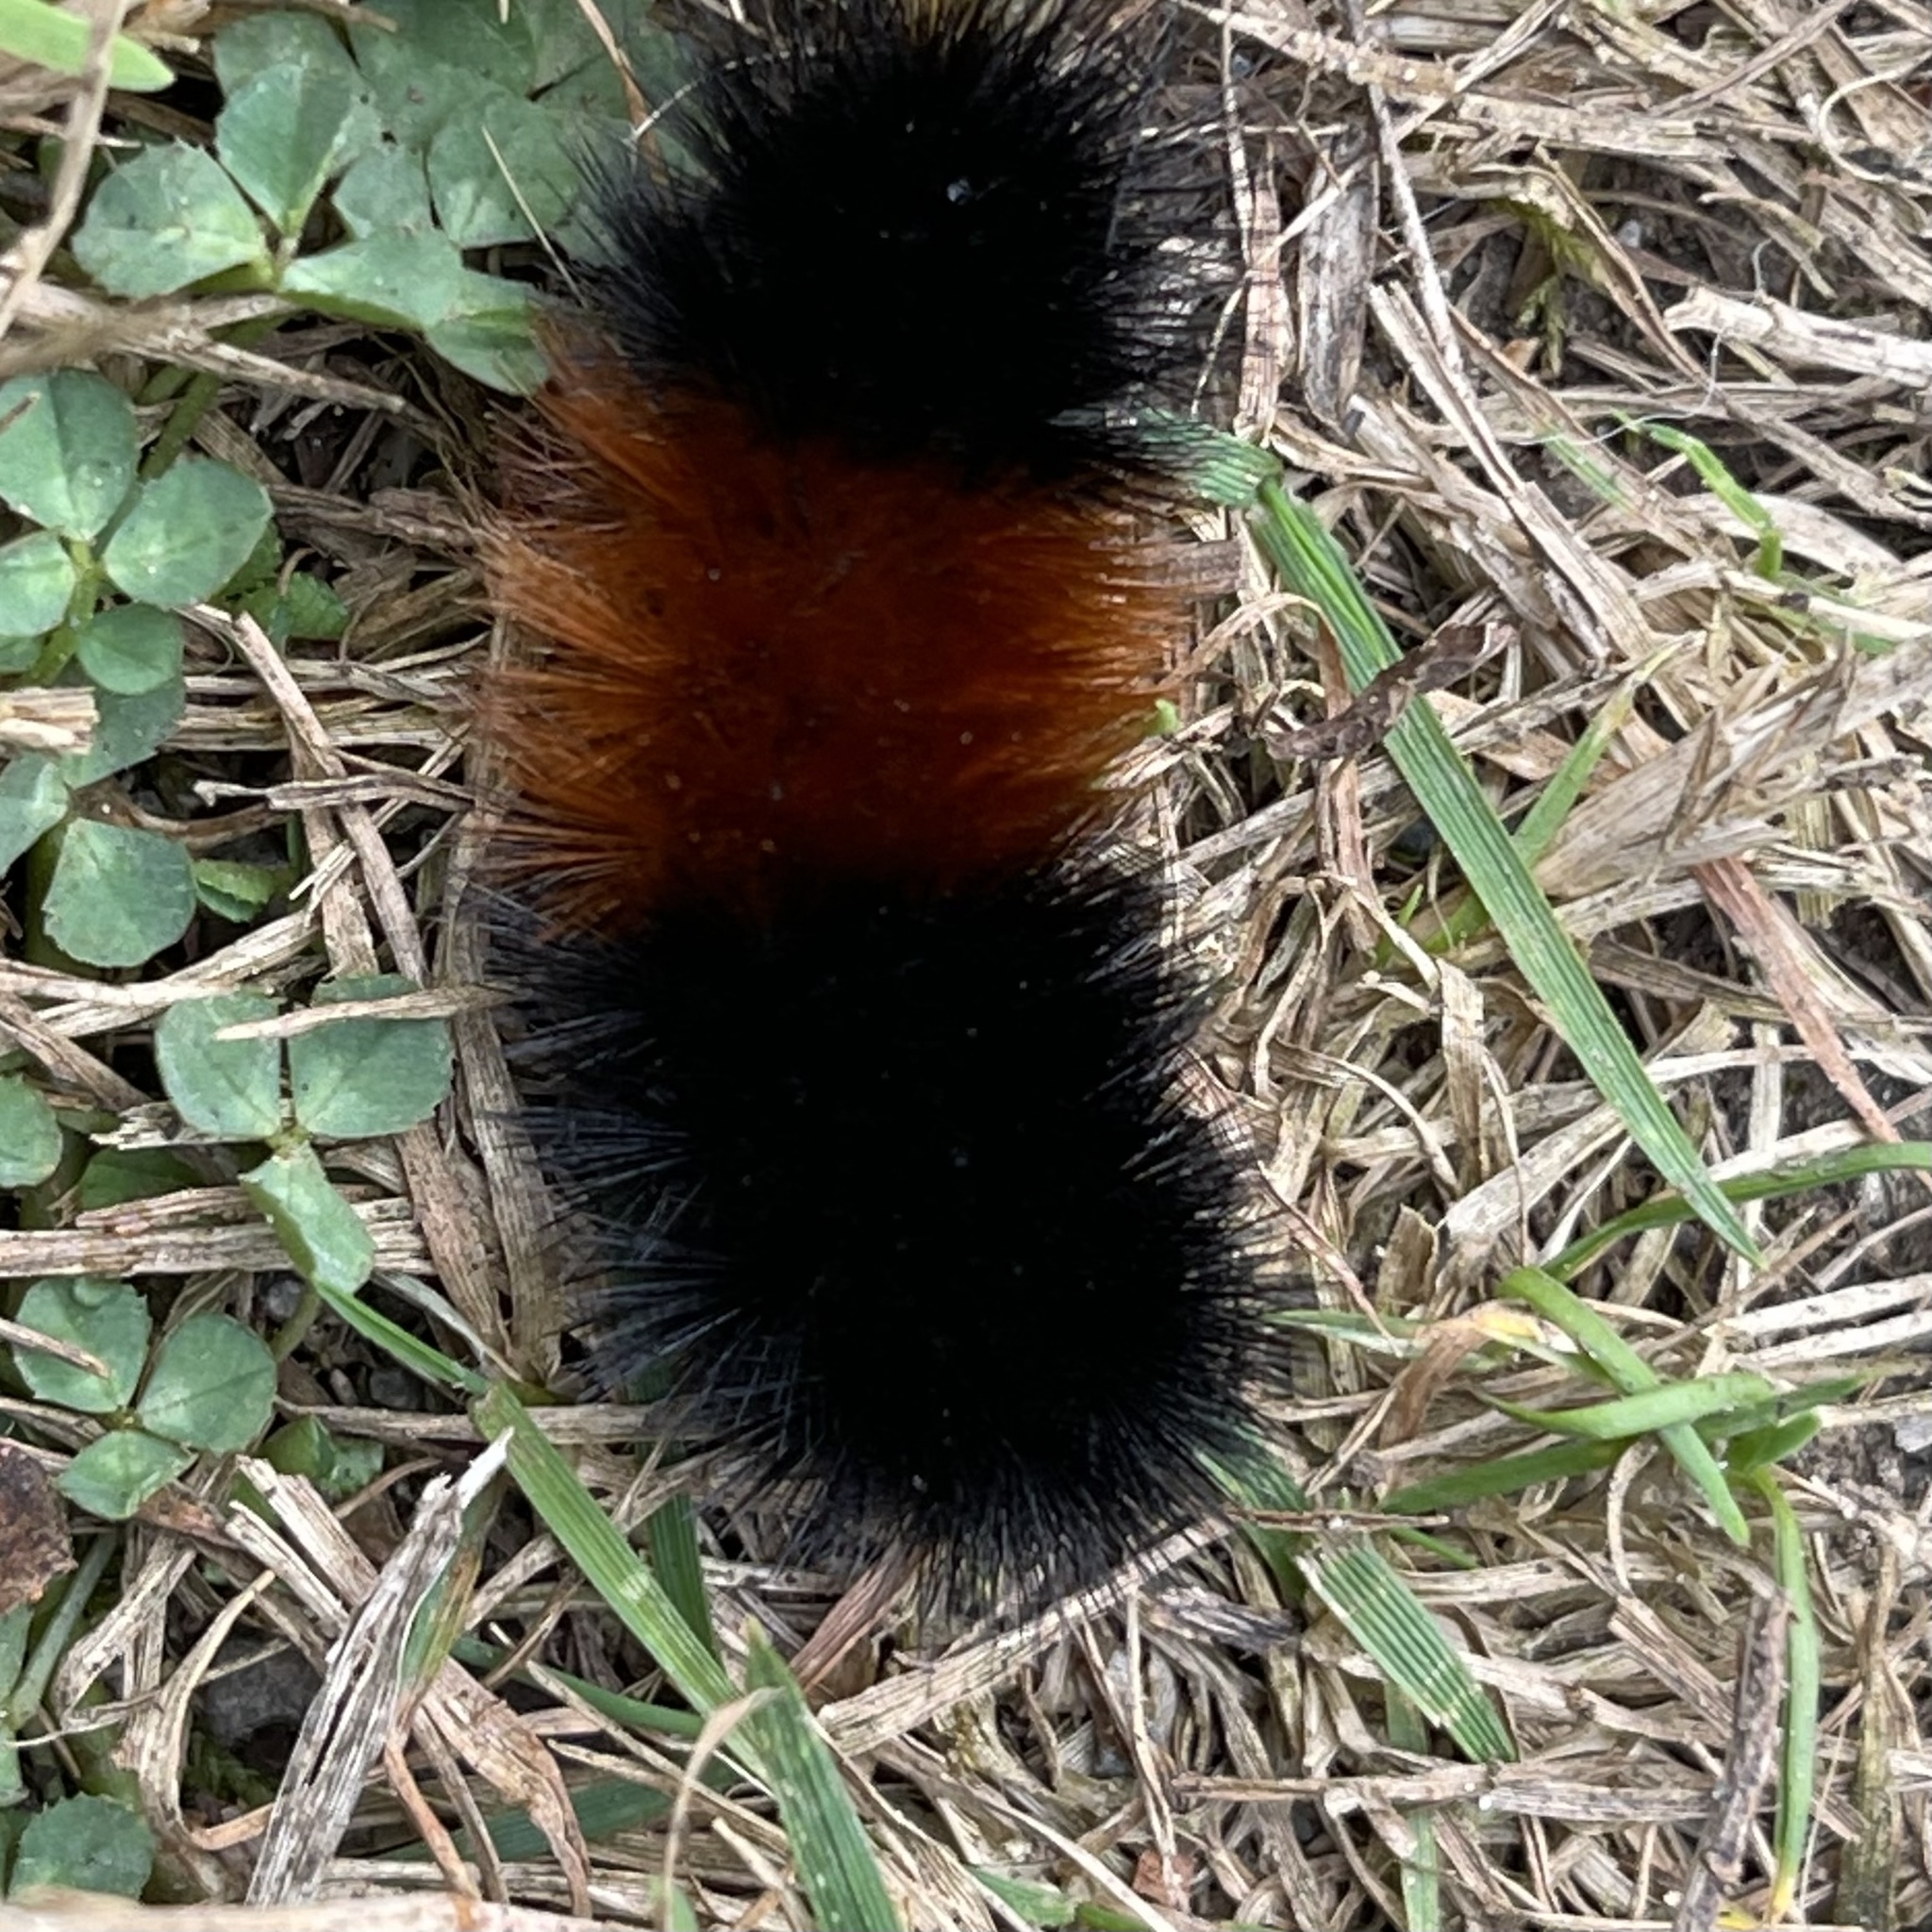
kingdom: Animalia
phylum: Arthropoda
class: Insecta
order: Lepidoptera
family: Erebidae
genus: Pyrrharctia
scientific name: Pyrrharctia isabella
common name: Isabella tiger moth
